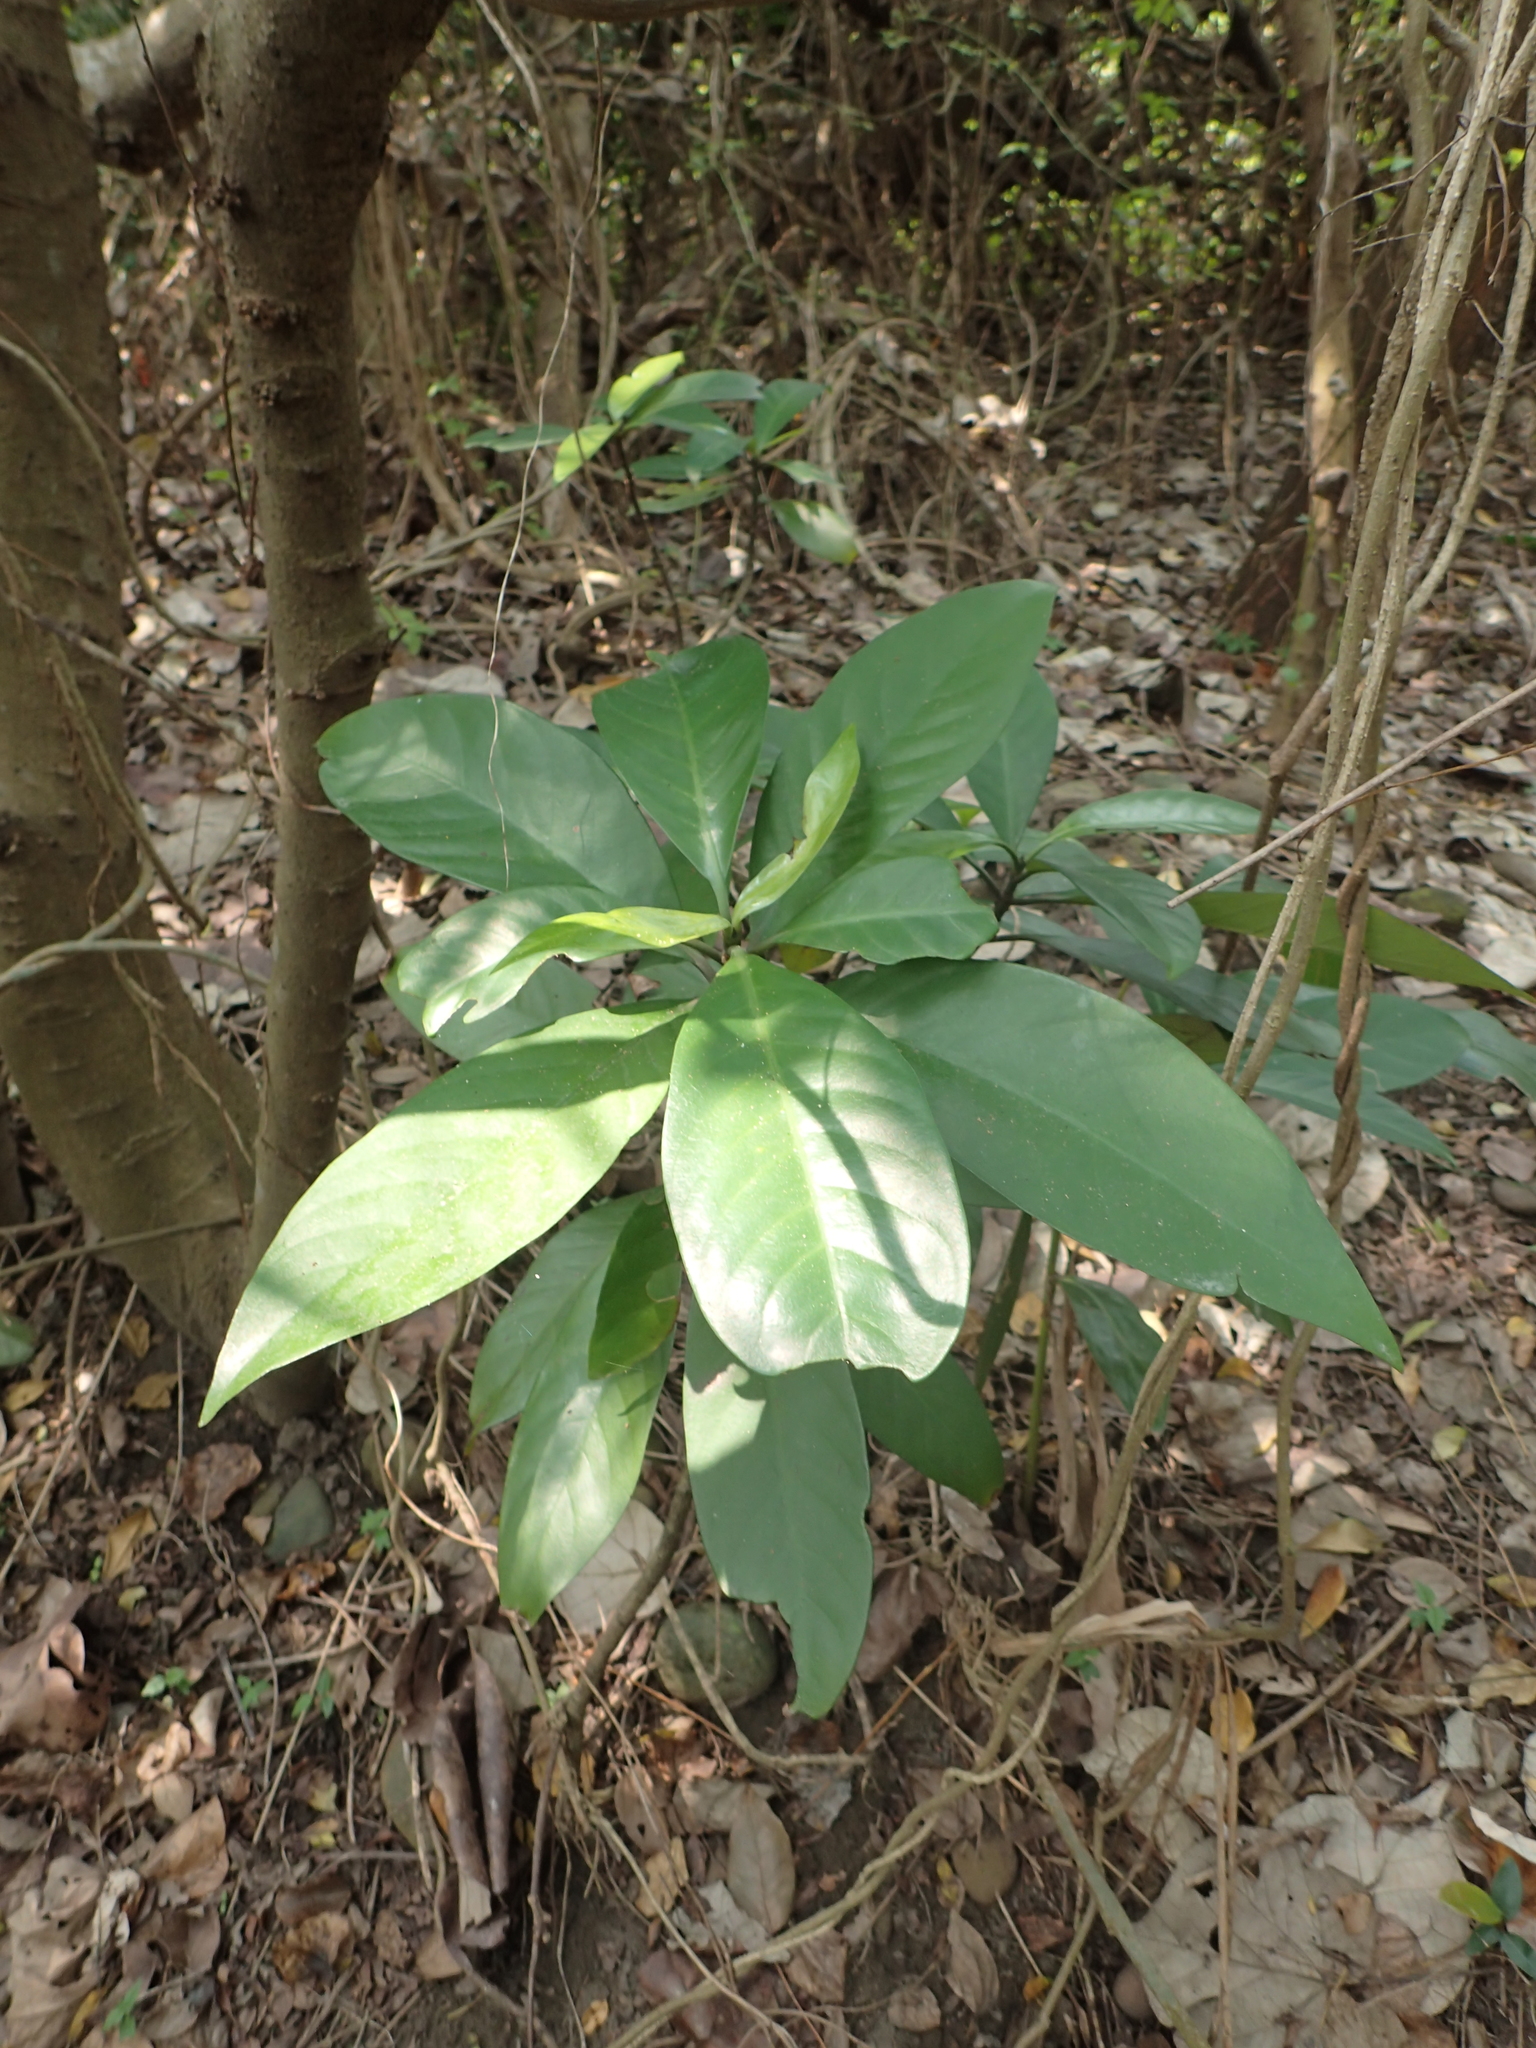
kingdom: Plantae
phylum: Tracheophyta
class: Magnoliopsida
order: Gentianales
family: Rubiaceae
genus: Psychotria
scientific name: Psychotria asiatica
